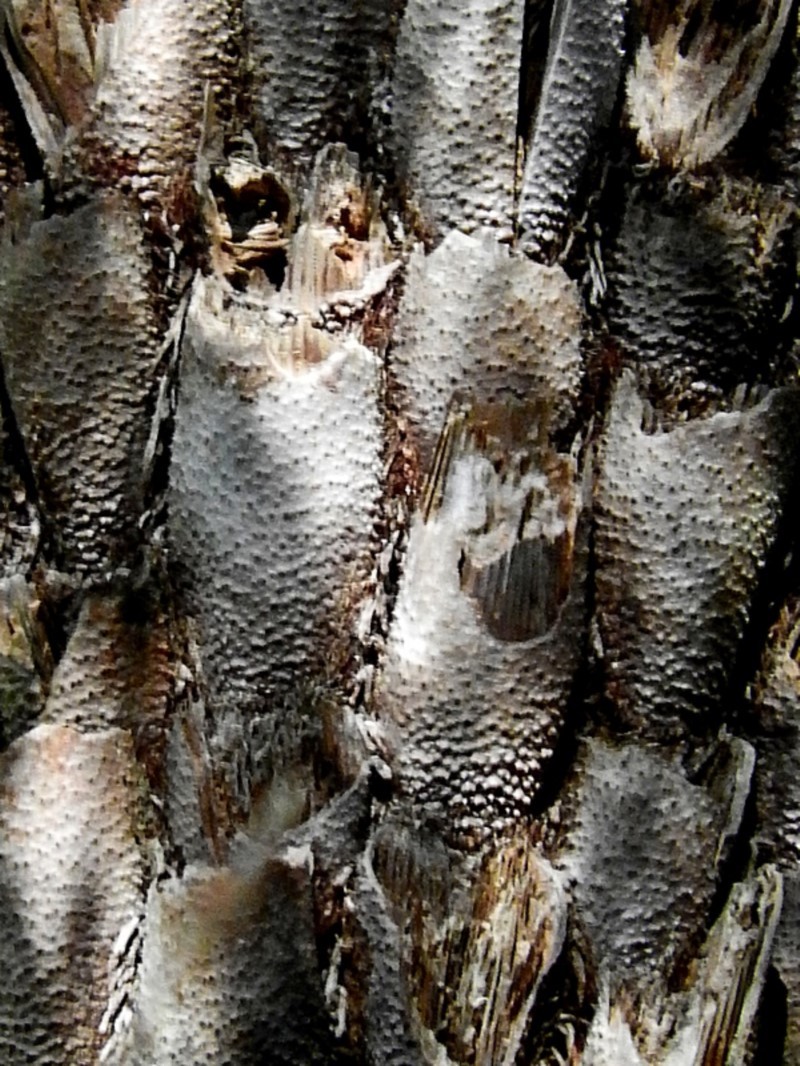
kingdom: Plantae
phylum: Tracheophyta
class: Polypodiopsida
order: Cyatheales
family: Cyatheaceae
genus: Alsophila
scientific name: Alsophila australis
